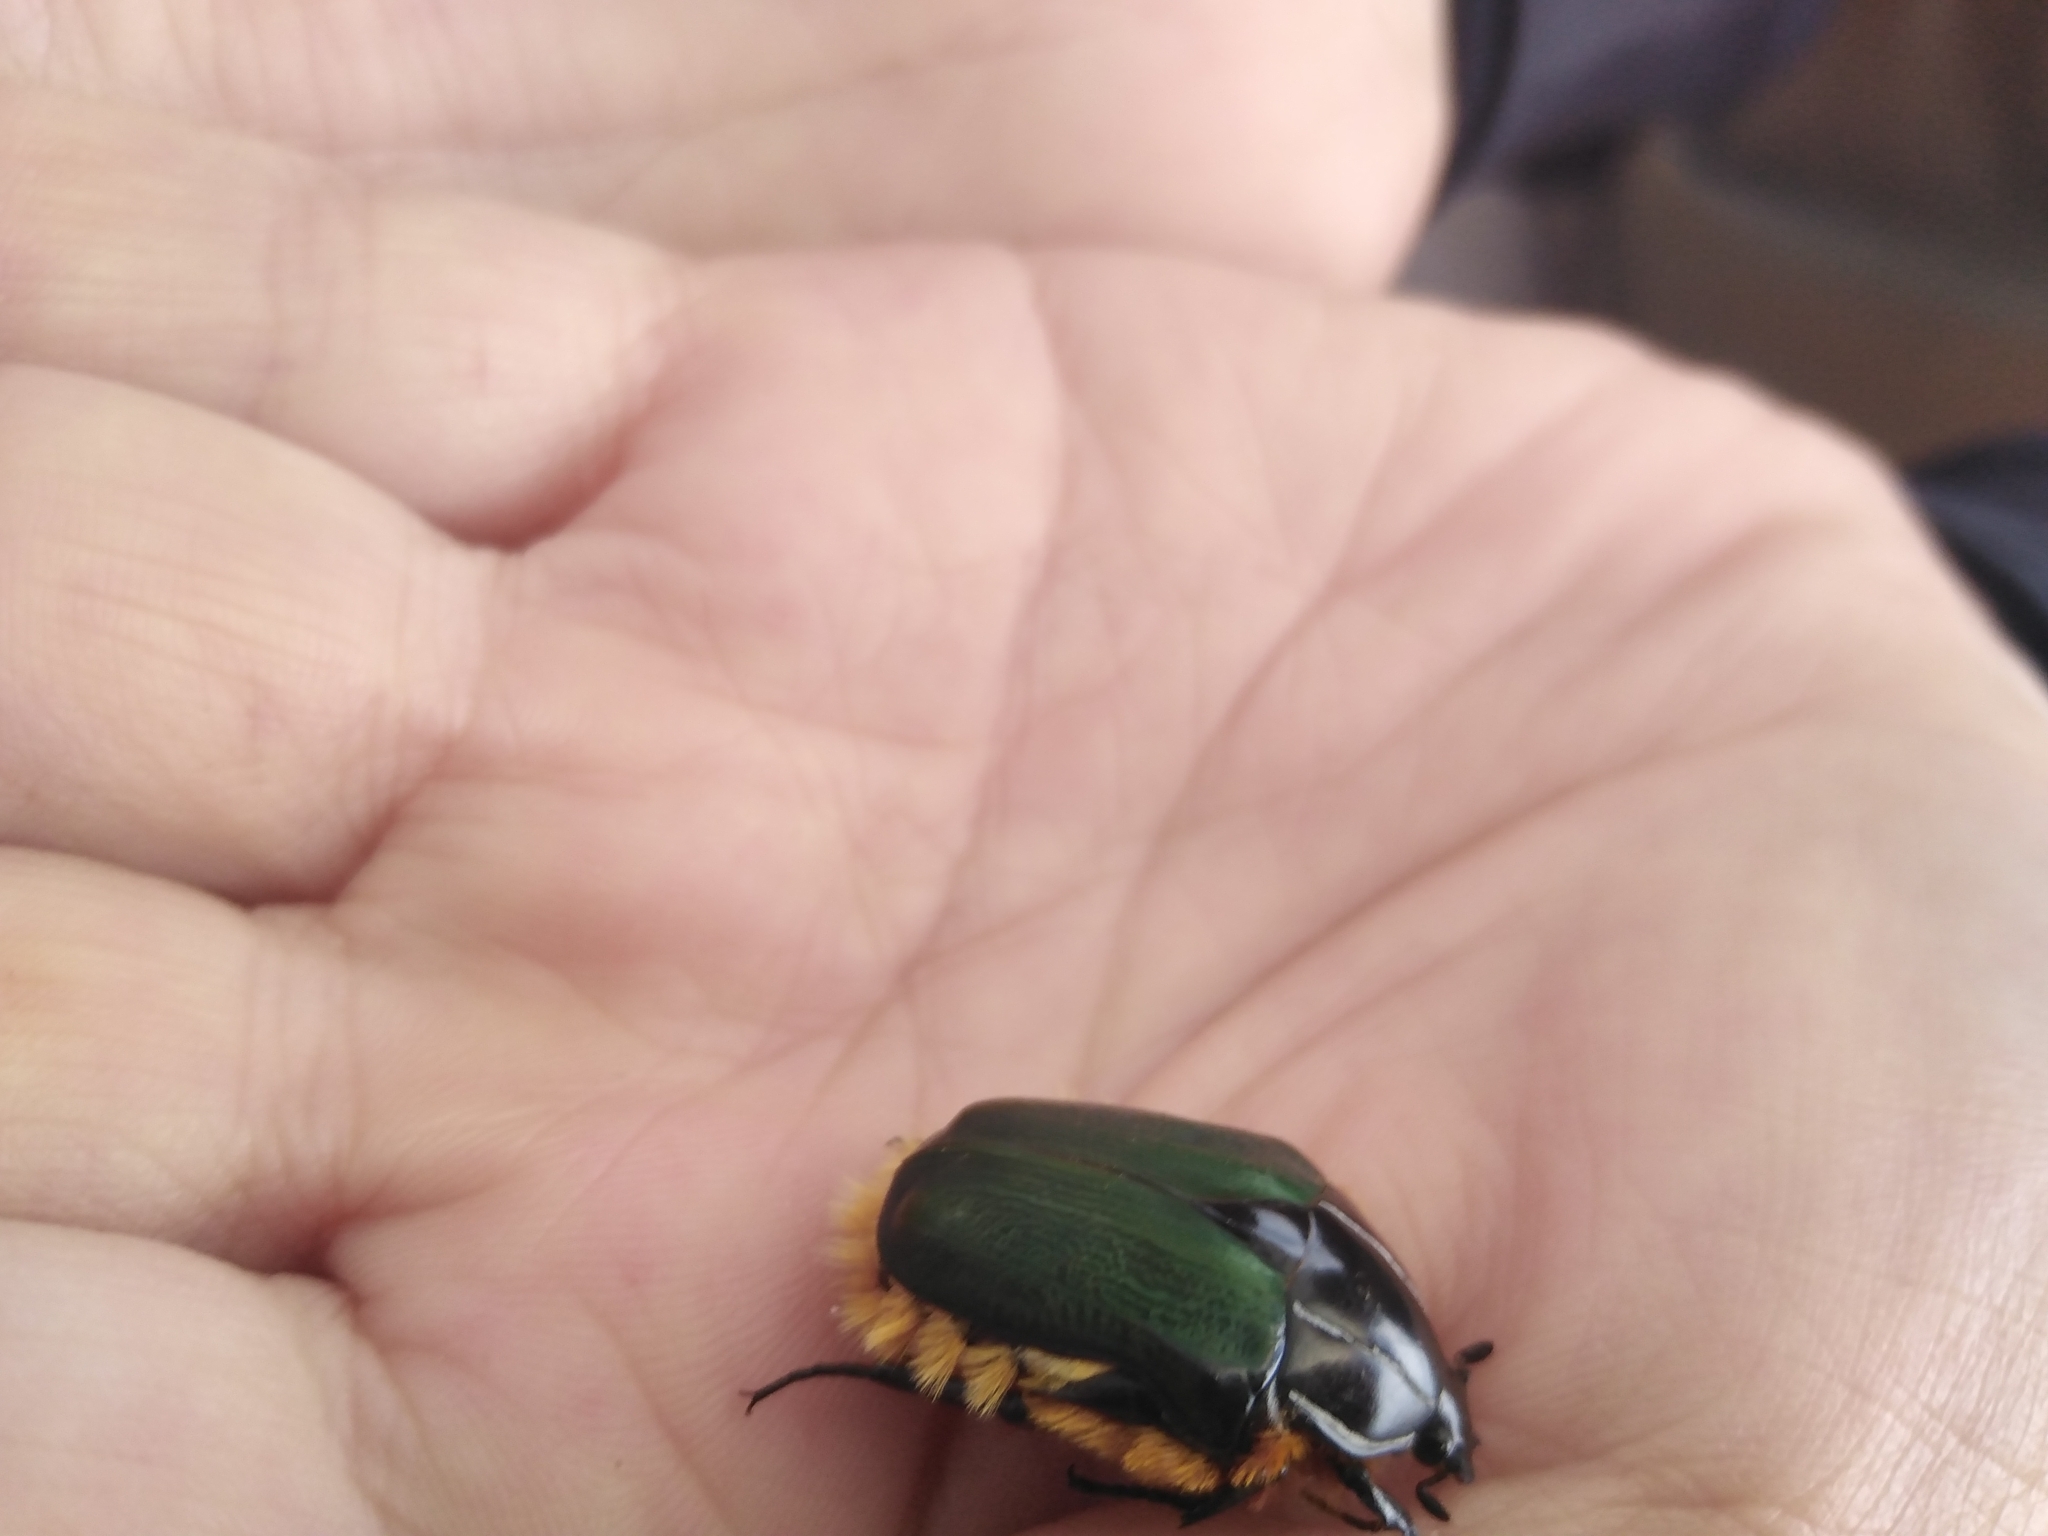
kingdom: Animalia
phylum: Arthropoda
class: Insecta
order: Coleoptera
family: Scarabaeidae
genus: Trichostetha
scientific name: Trichostetha fascicularis
